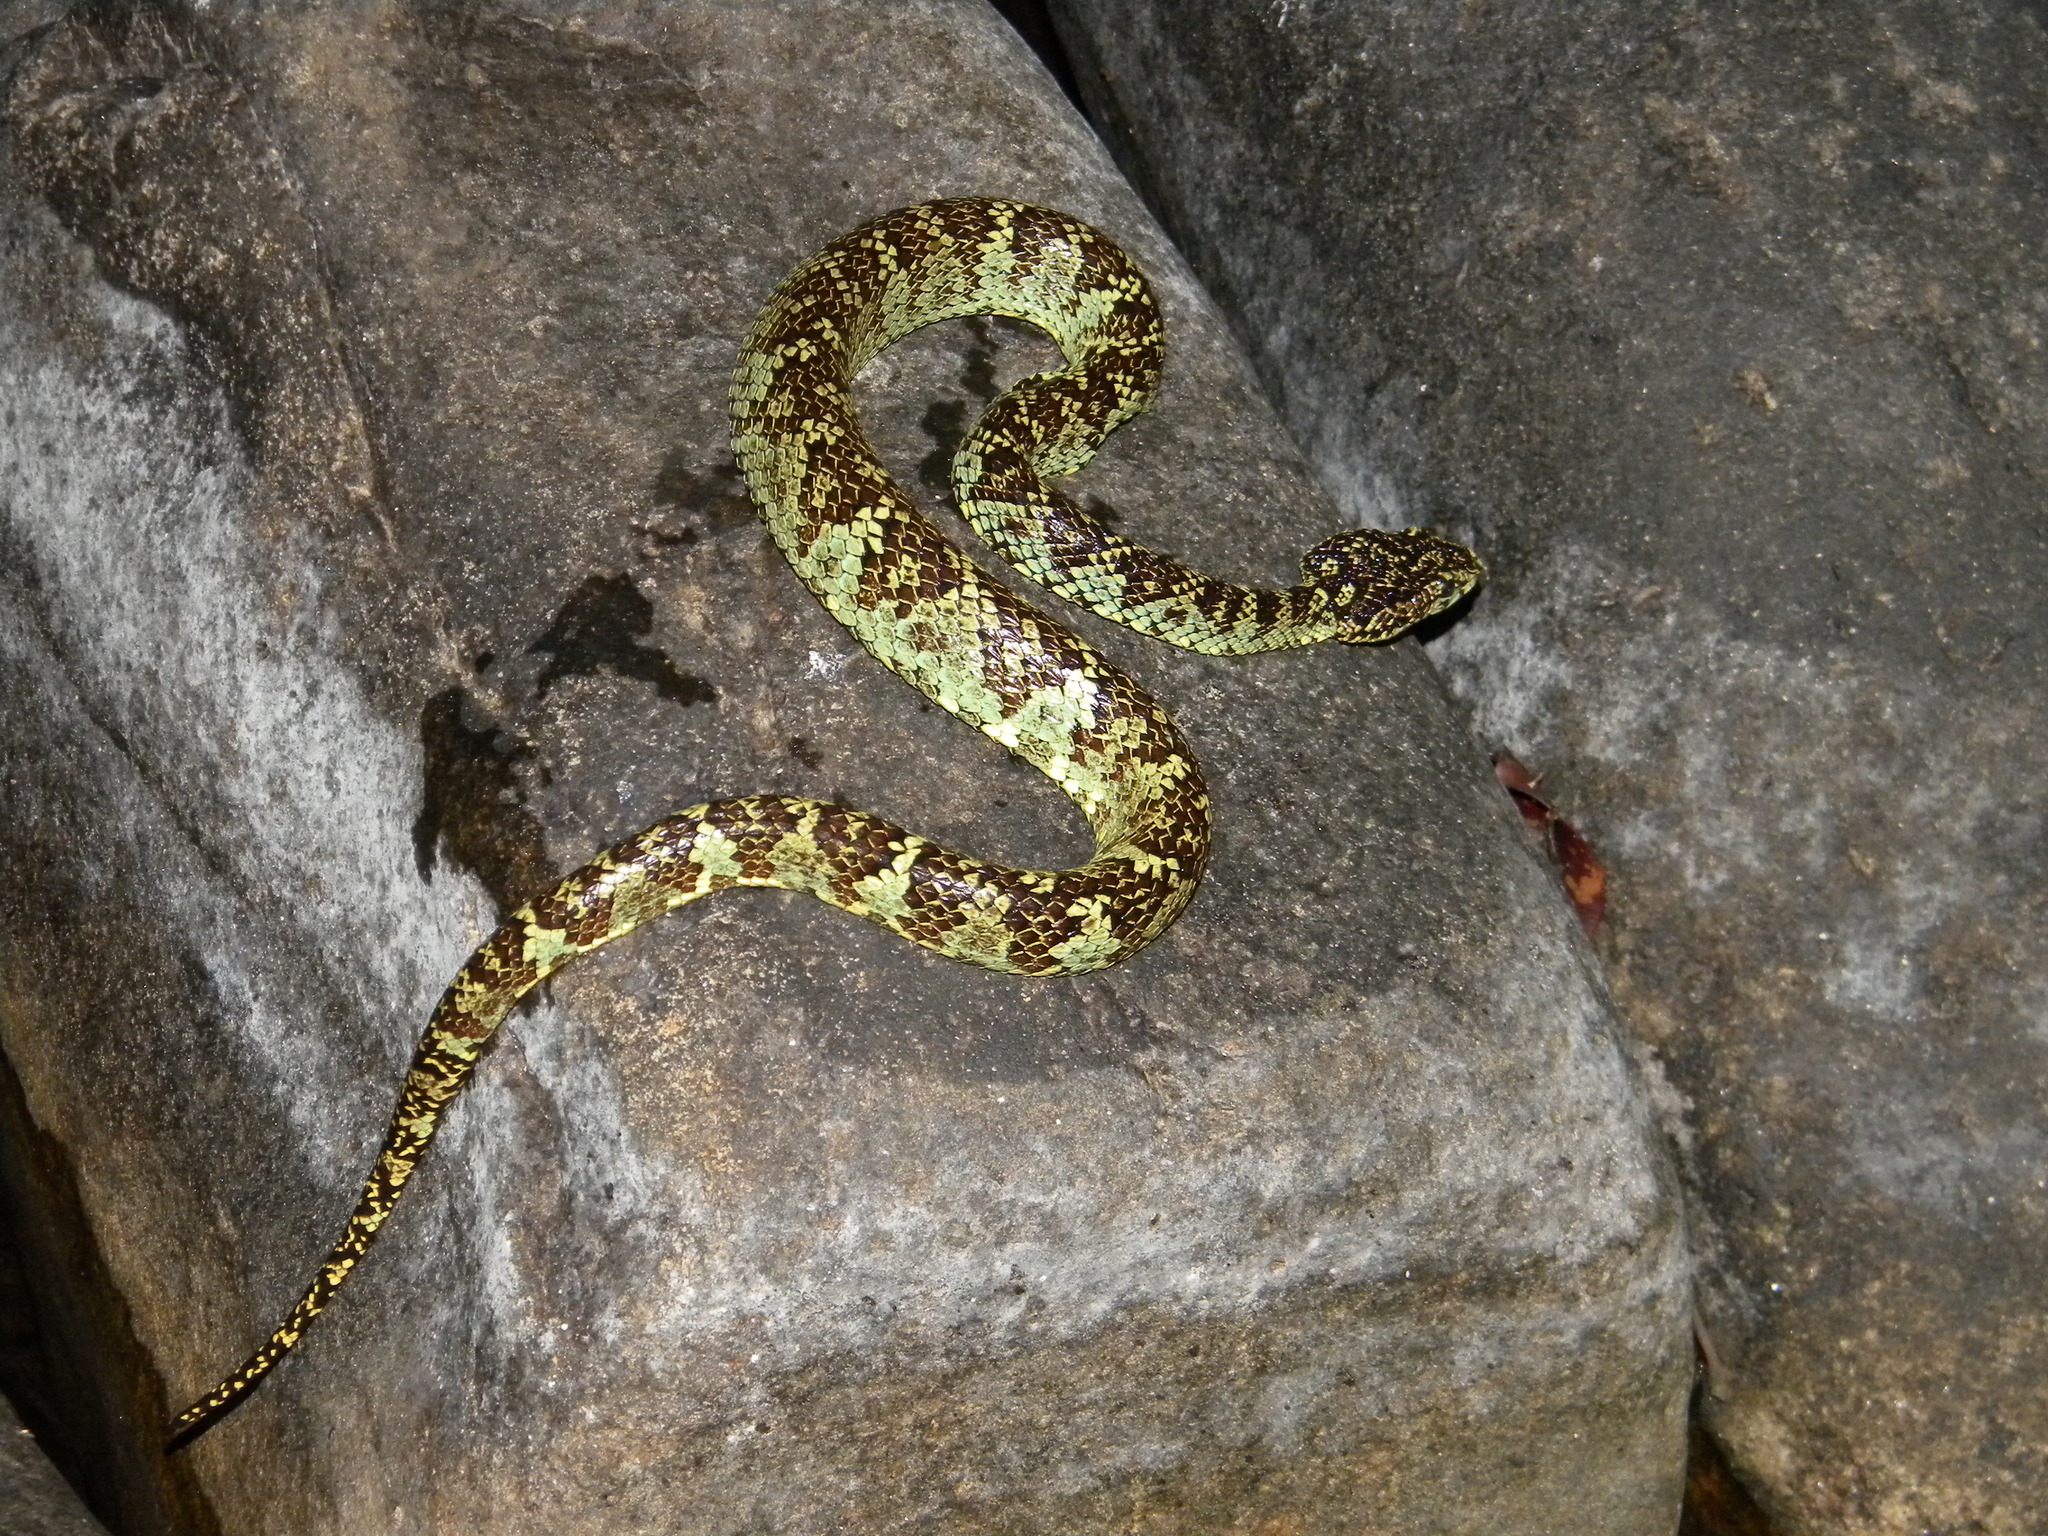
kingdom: Animalia
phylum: Chordata
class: Squamata
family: Viperidae
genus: Craspedocephalus
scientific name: Craspedocephalus malabaricus
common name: Malabarian pit viper
